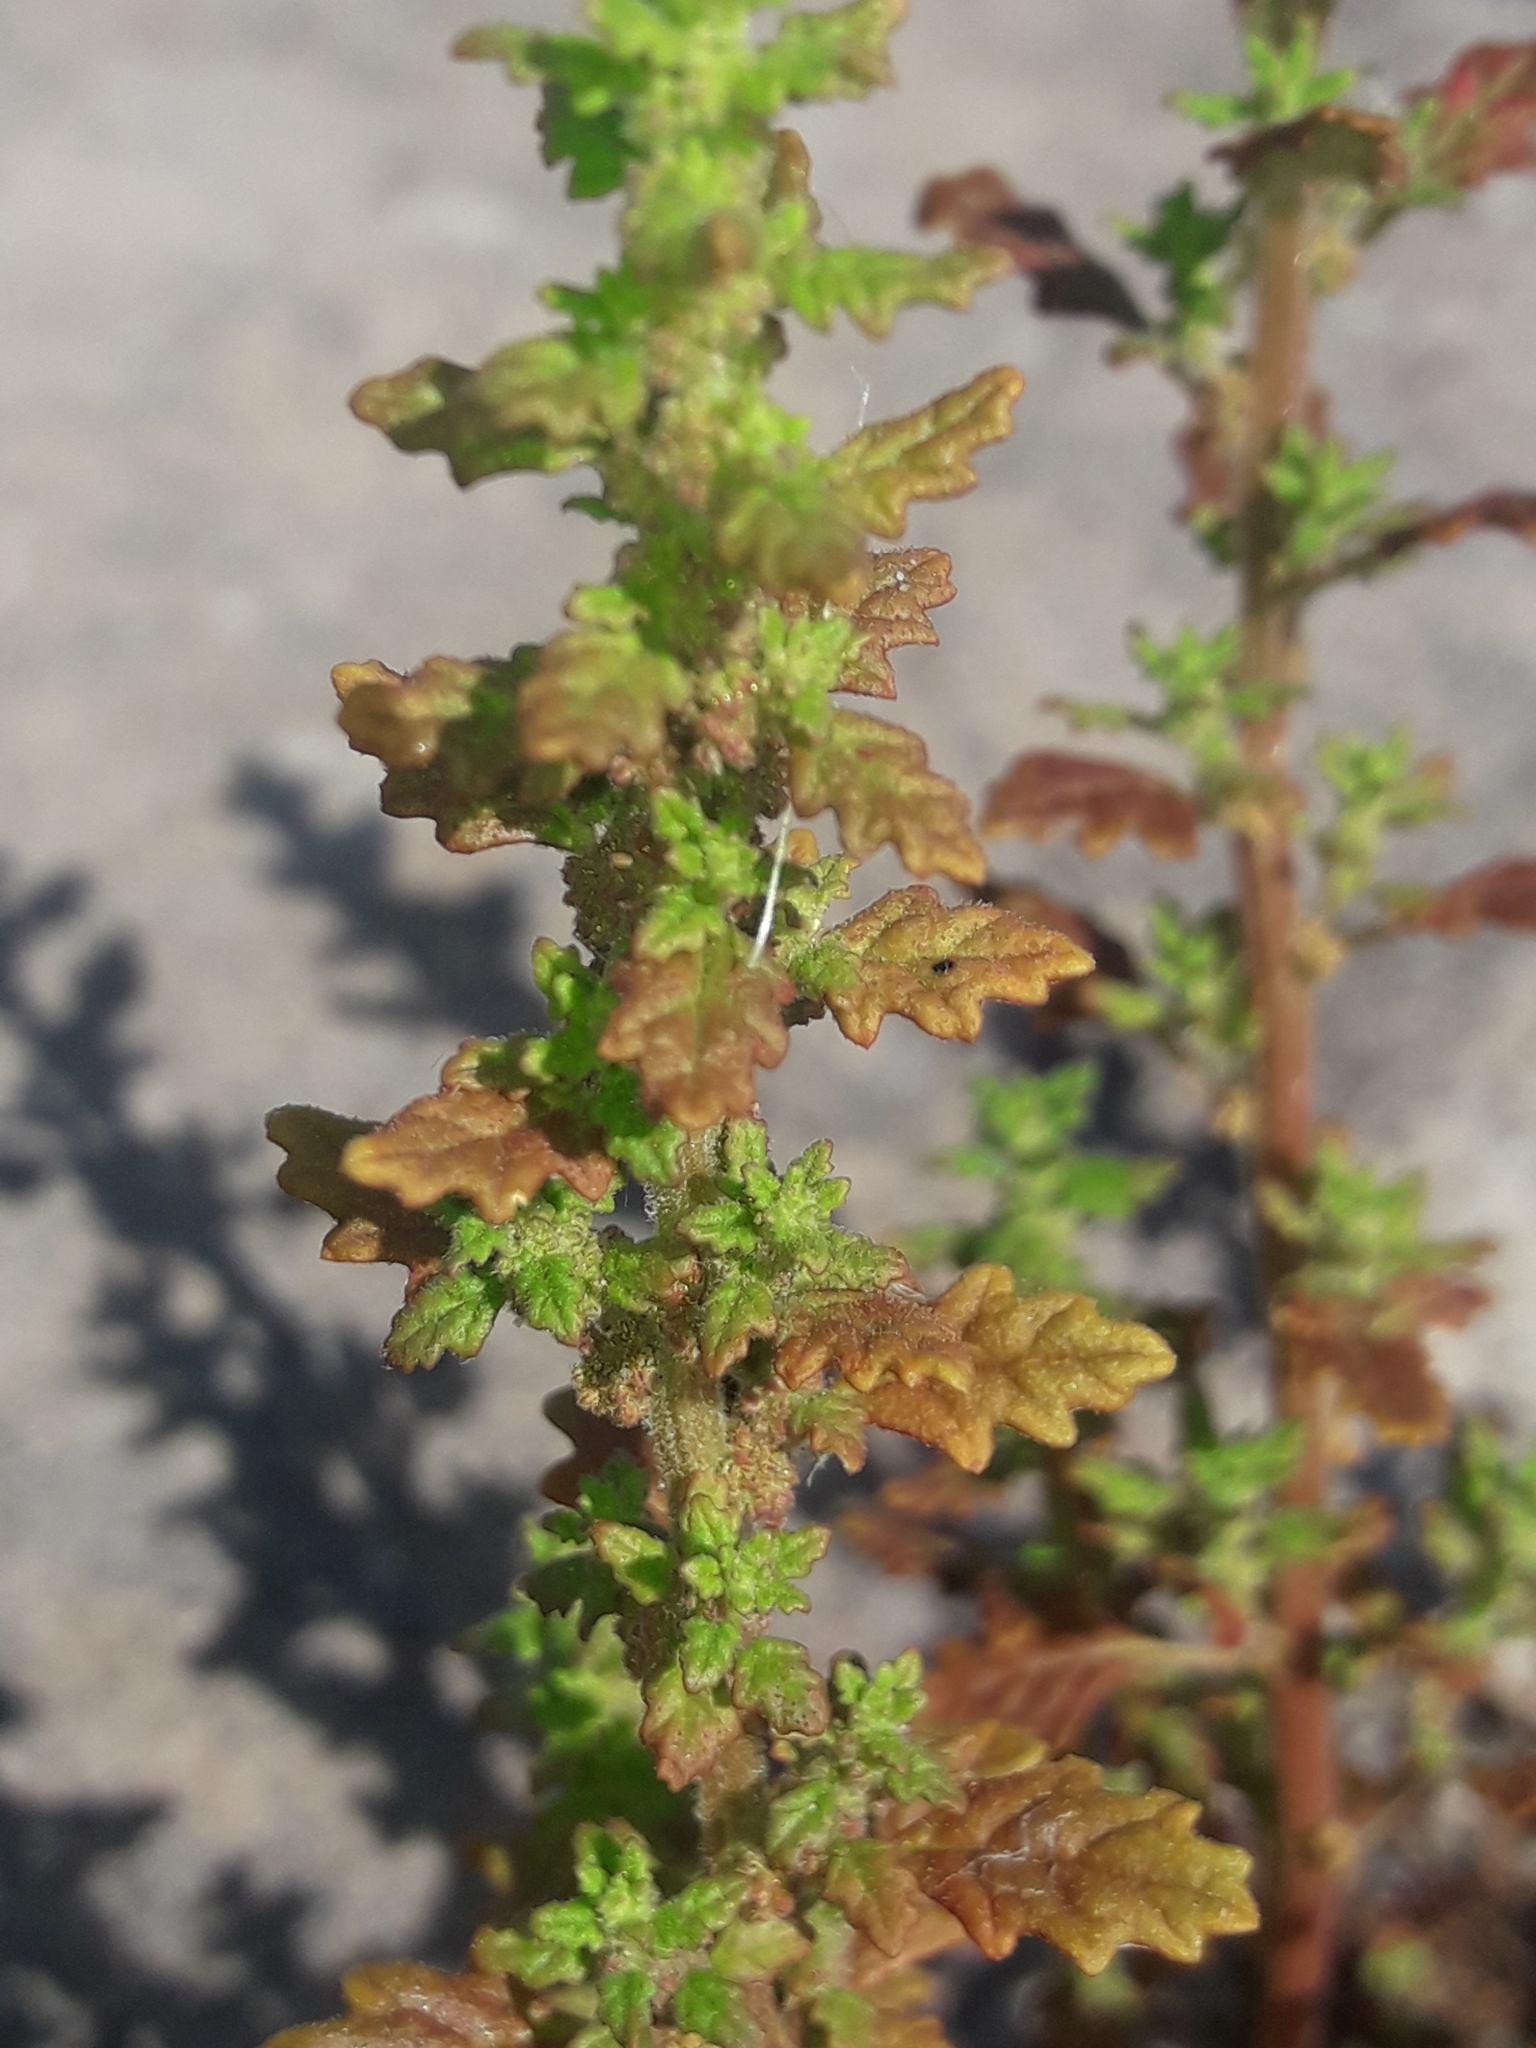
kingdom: Plantae
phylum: Tracheophyta
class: Magnoliopsida
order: Caryophyllales
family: Amaranthaceae
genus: Dysphania
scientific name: Dysphania pumilio
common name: Clammy goosefoot
